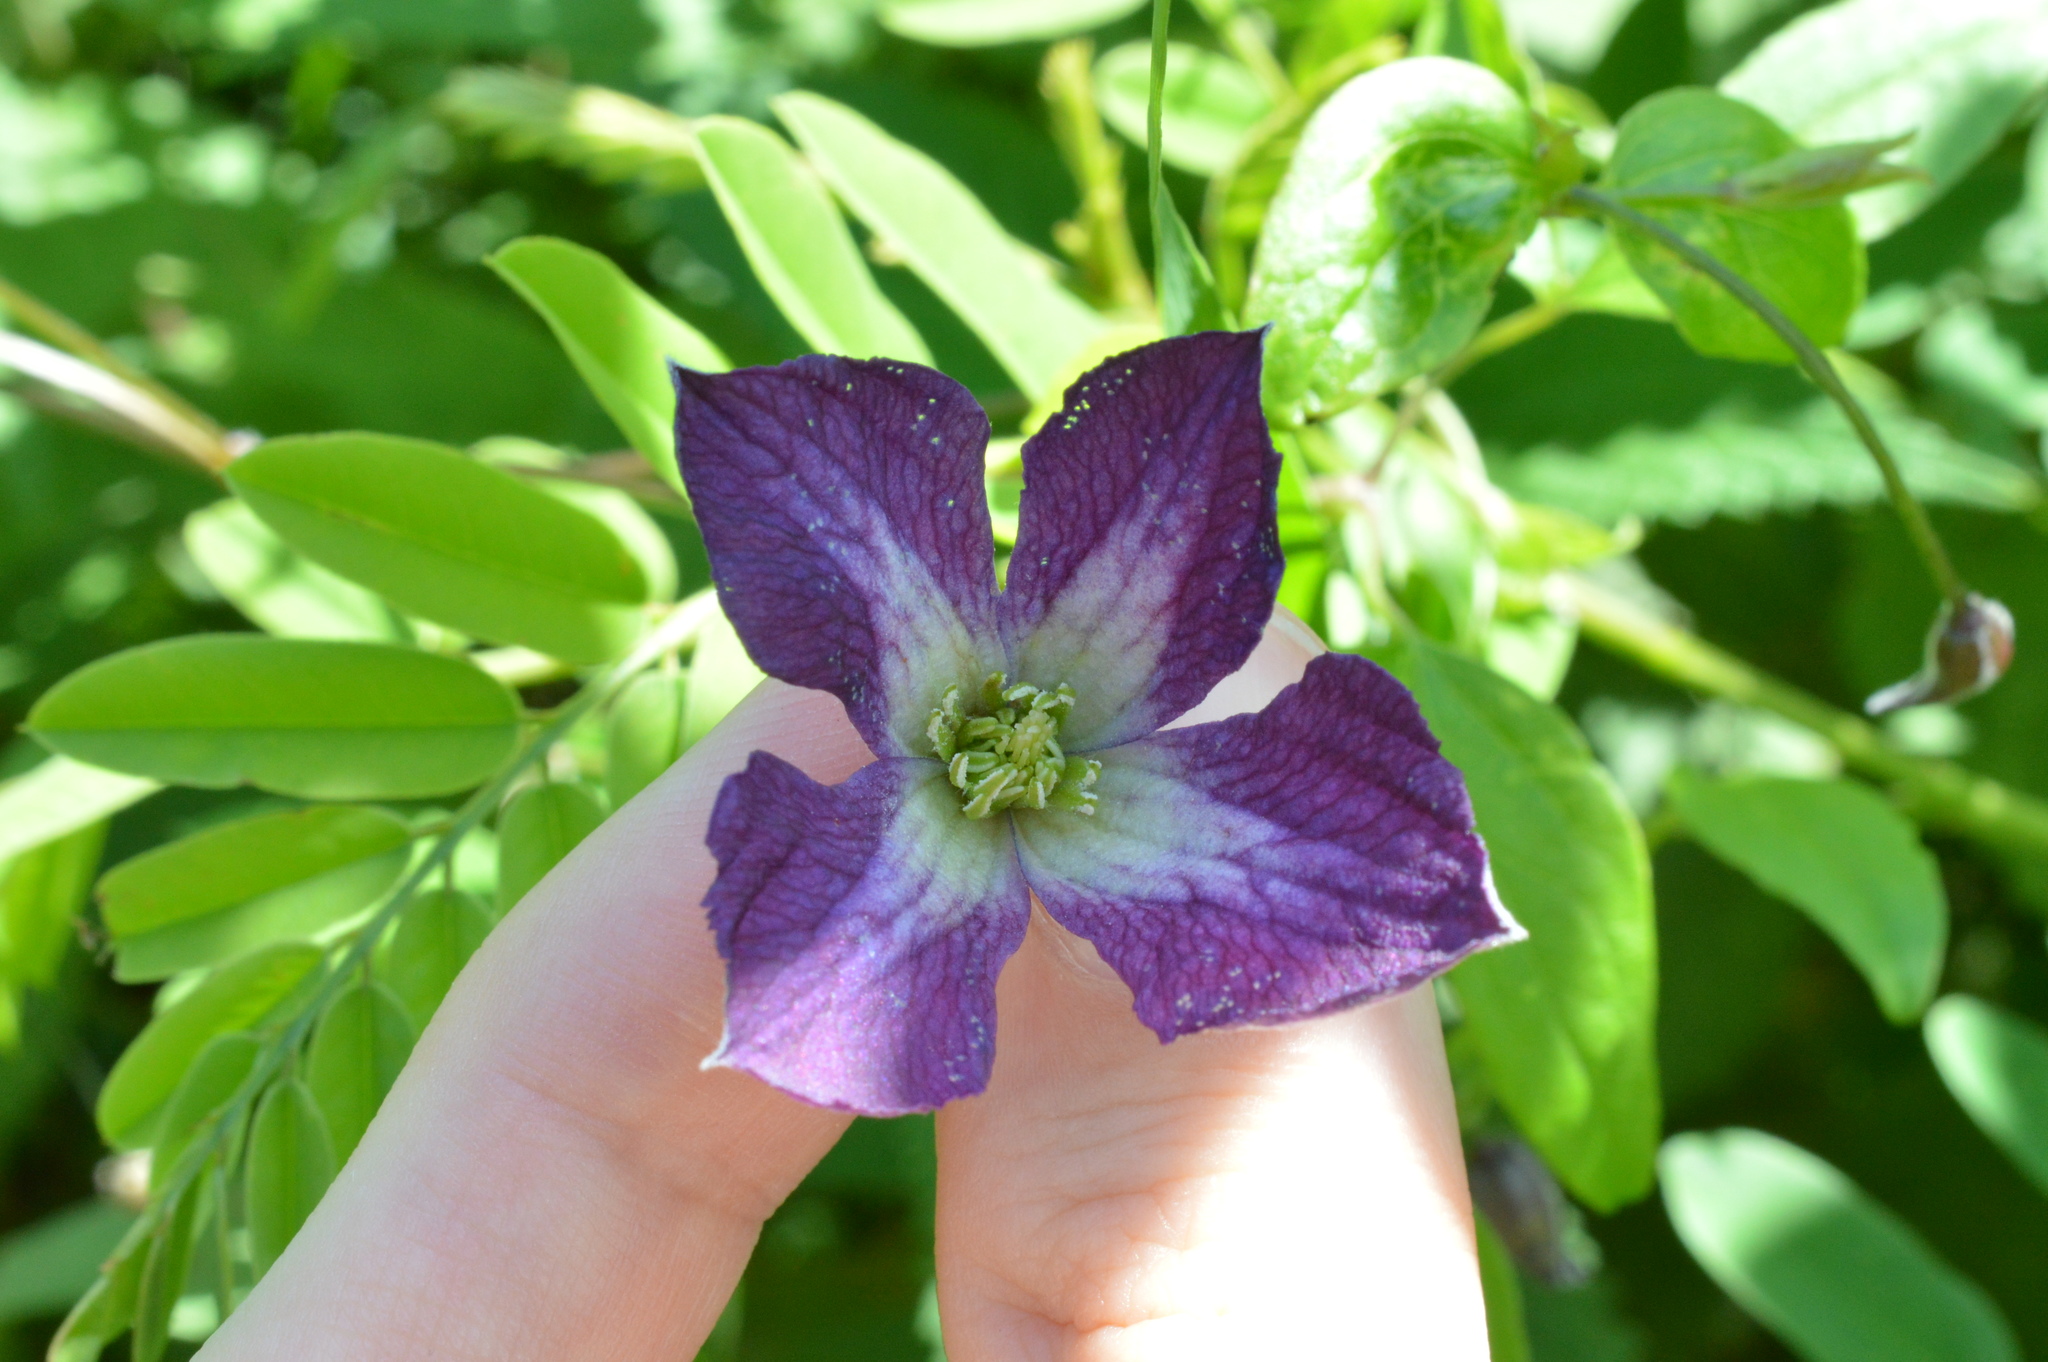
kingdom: Plantae
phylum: Tracheophyta
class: Magnoliopsida
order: Ranunculales
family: Ranunculaceae
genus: Clematis
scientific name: Clematis viticella
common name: Purple clematis
